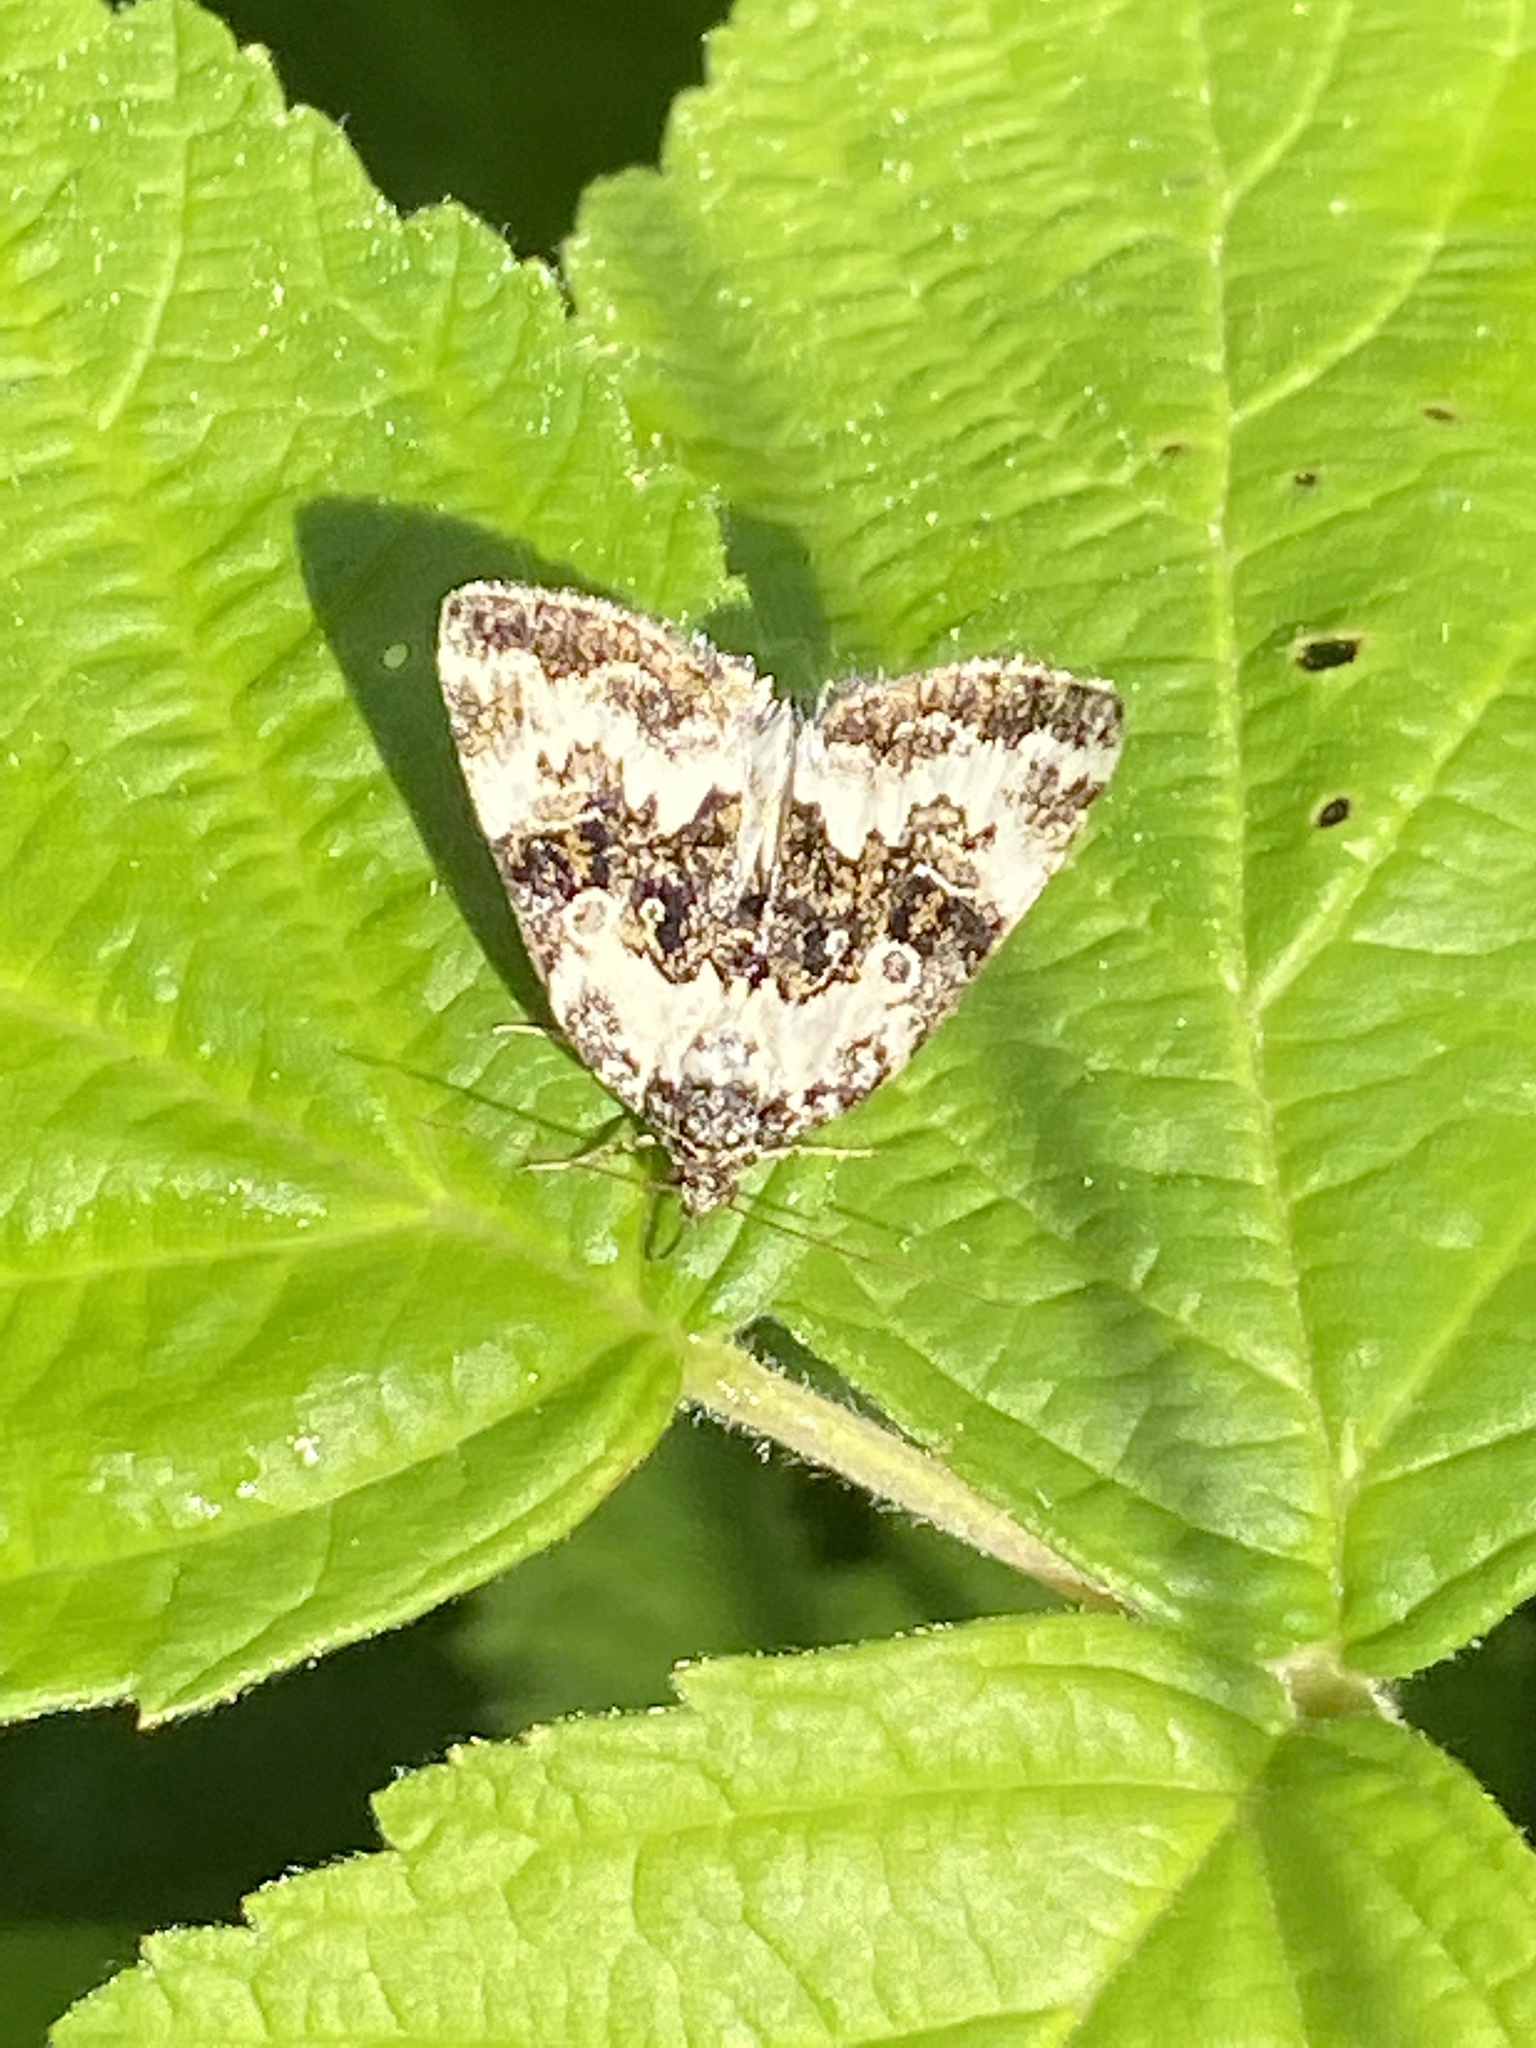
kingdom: Animalia
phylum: Arthropoda
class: Insecta
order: Lepidoptera
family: Noctuidae
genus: Deltote
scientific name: Deltote deceptoria
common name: Pretty marbled
